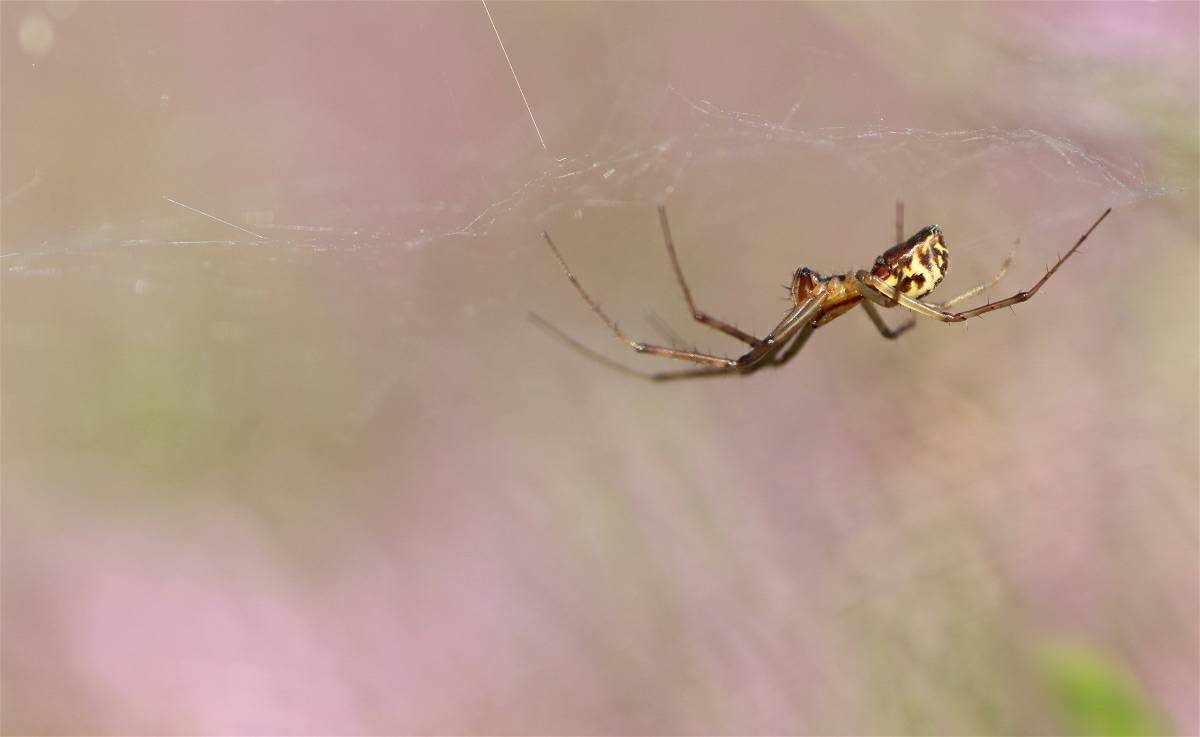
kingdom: Animalia
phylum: Arthropoda
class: Arachnida
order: Araneae
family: Linyphiidae
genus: Linyphia
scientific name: Linyphia triangularis
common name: Money spider
